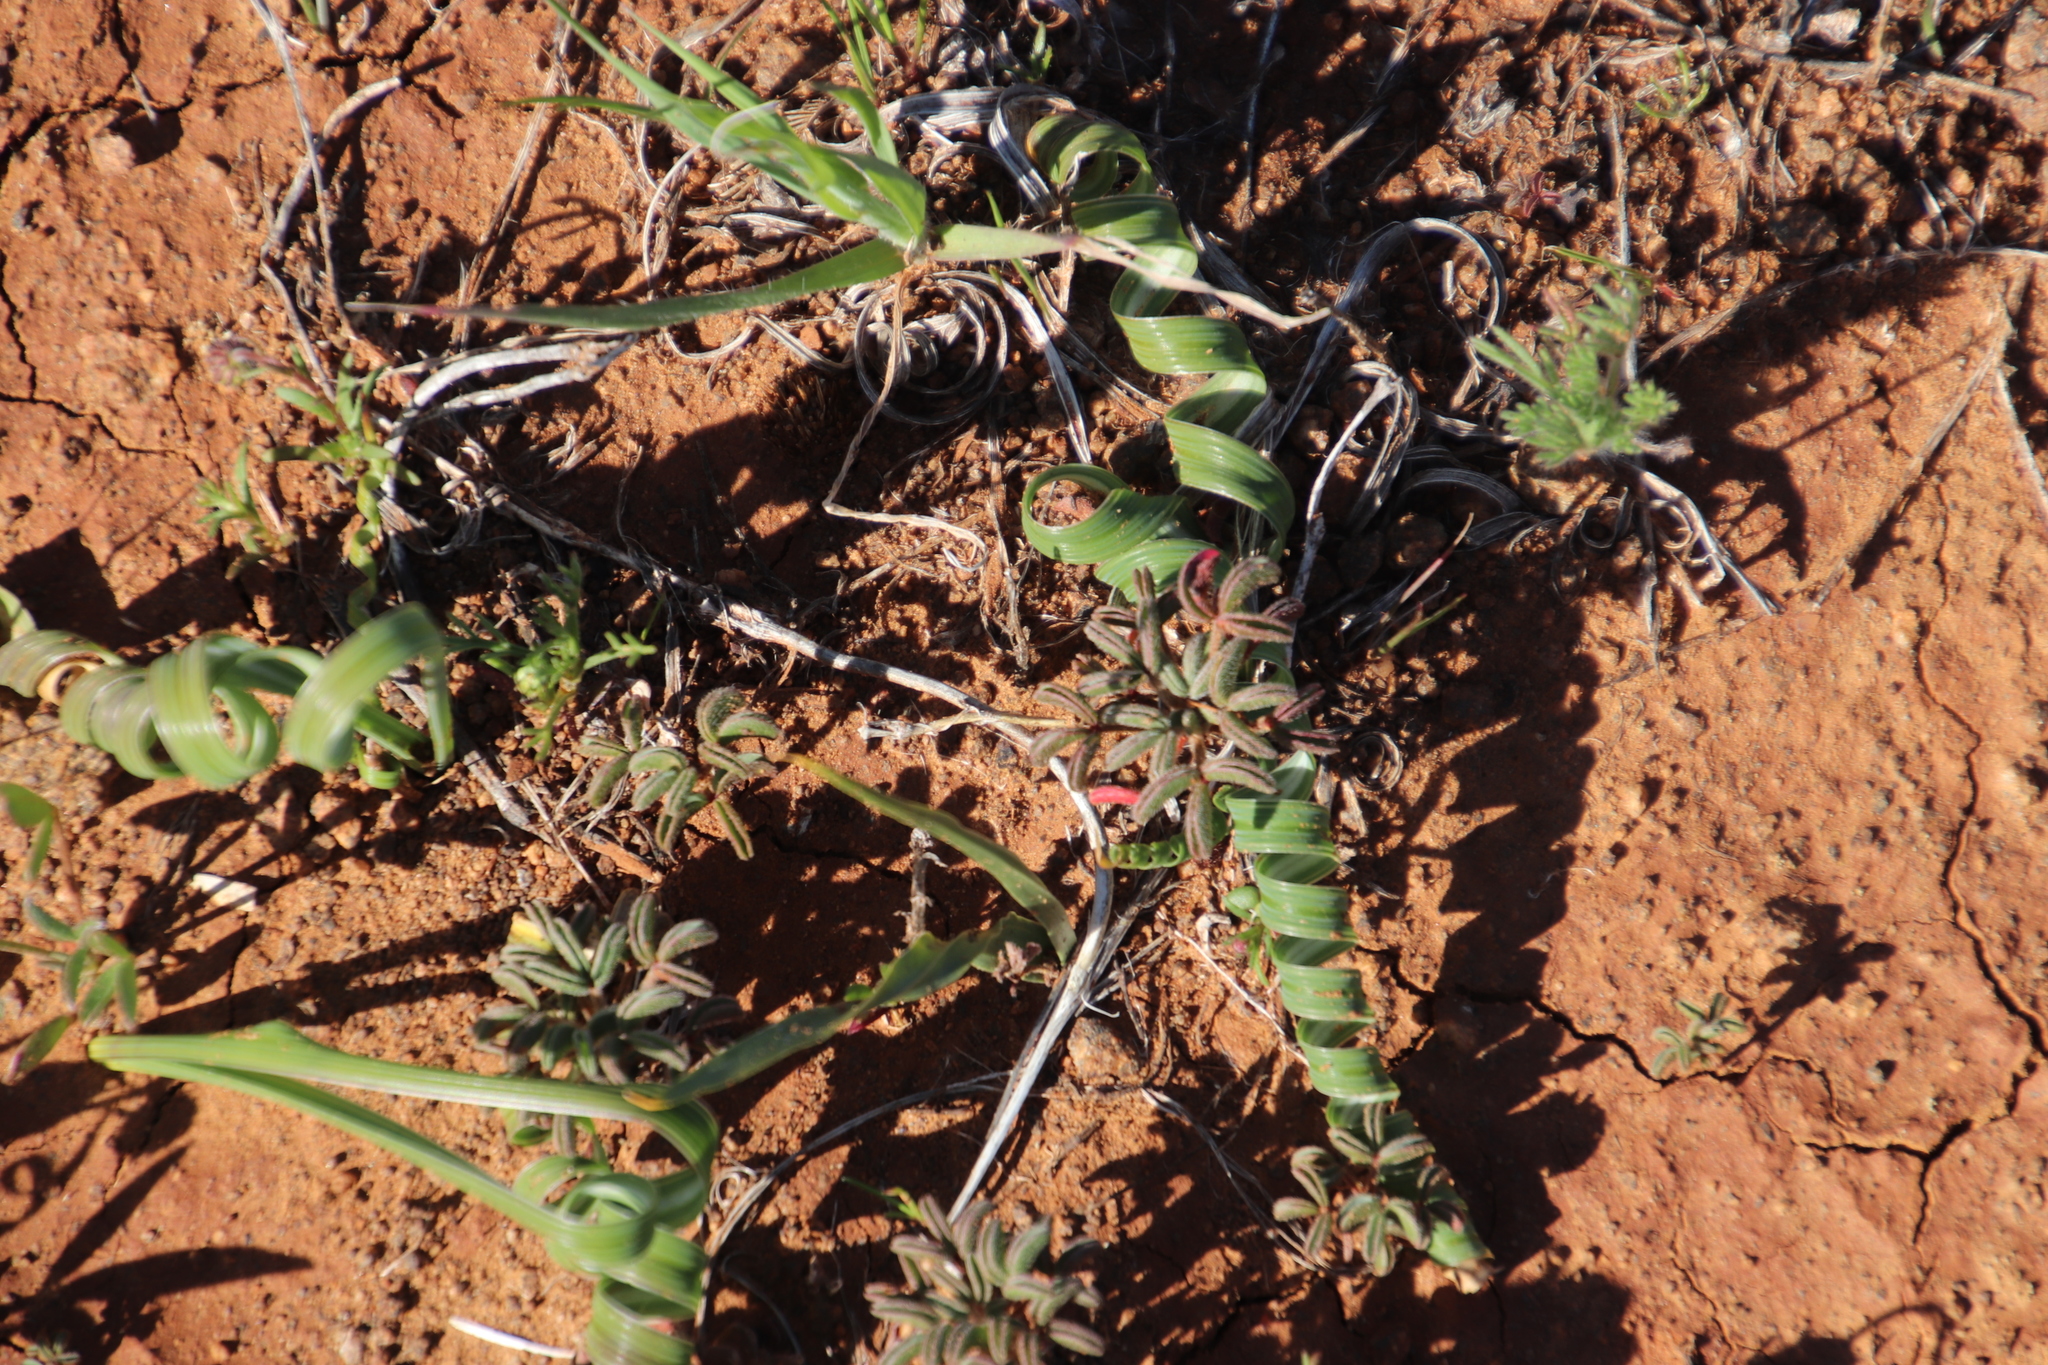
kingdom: Plantae
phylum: Tracheophyta
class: Liliopsida
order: Asparagales
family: Iridaceae
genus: Moraea
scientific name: Moraea pritzeliana
